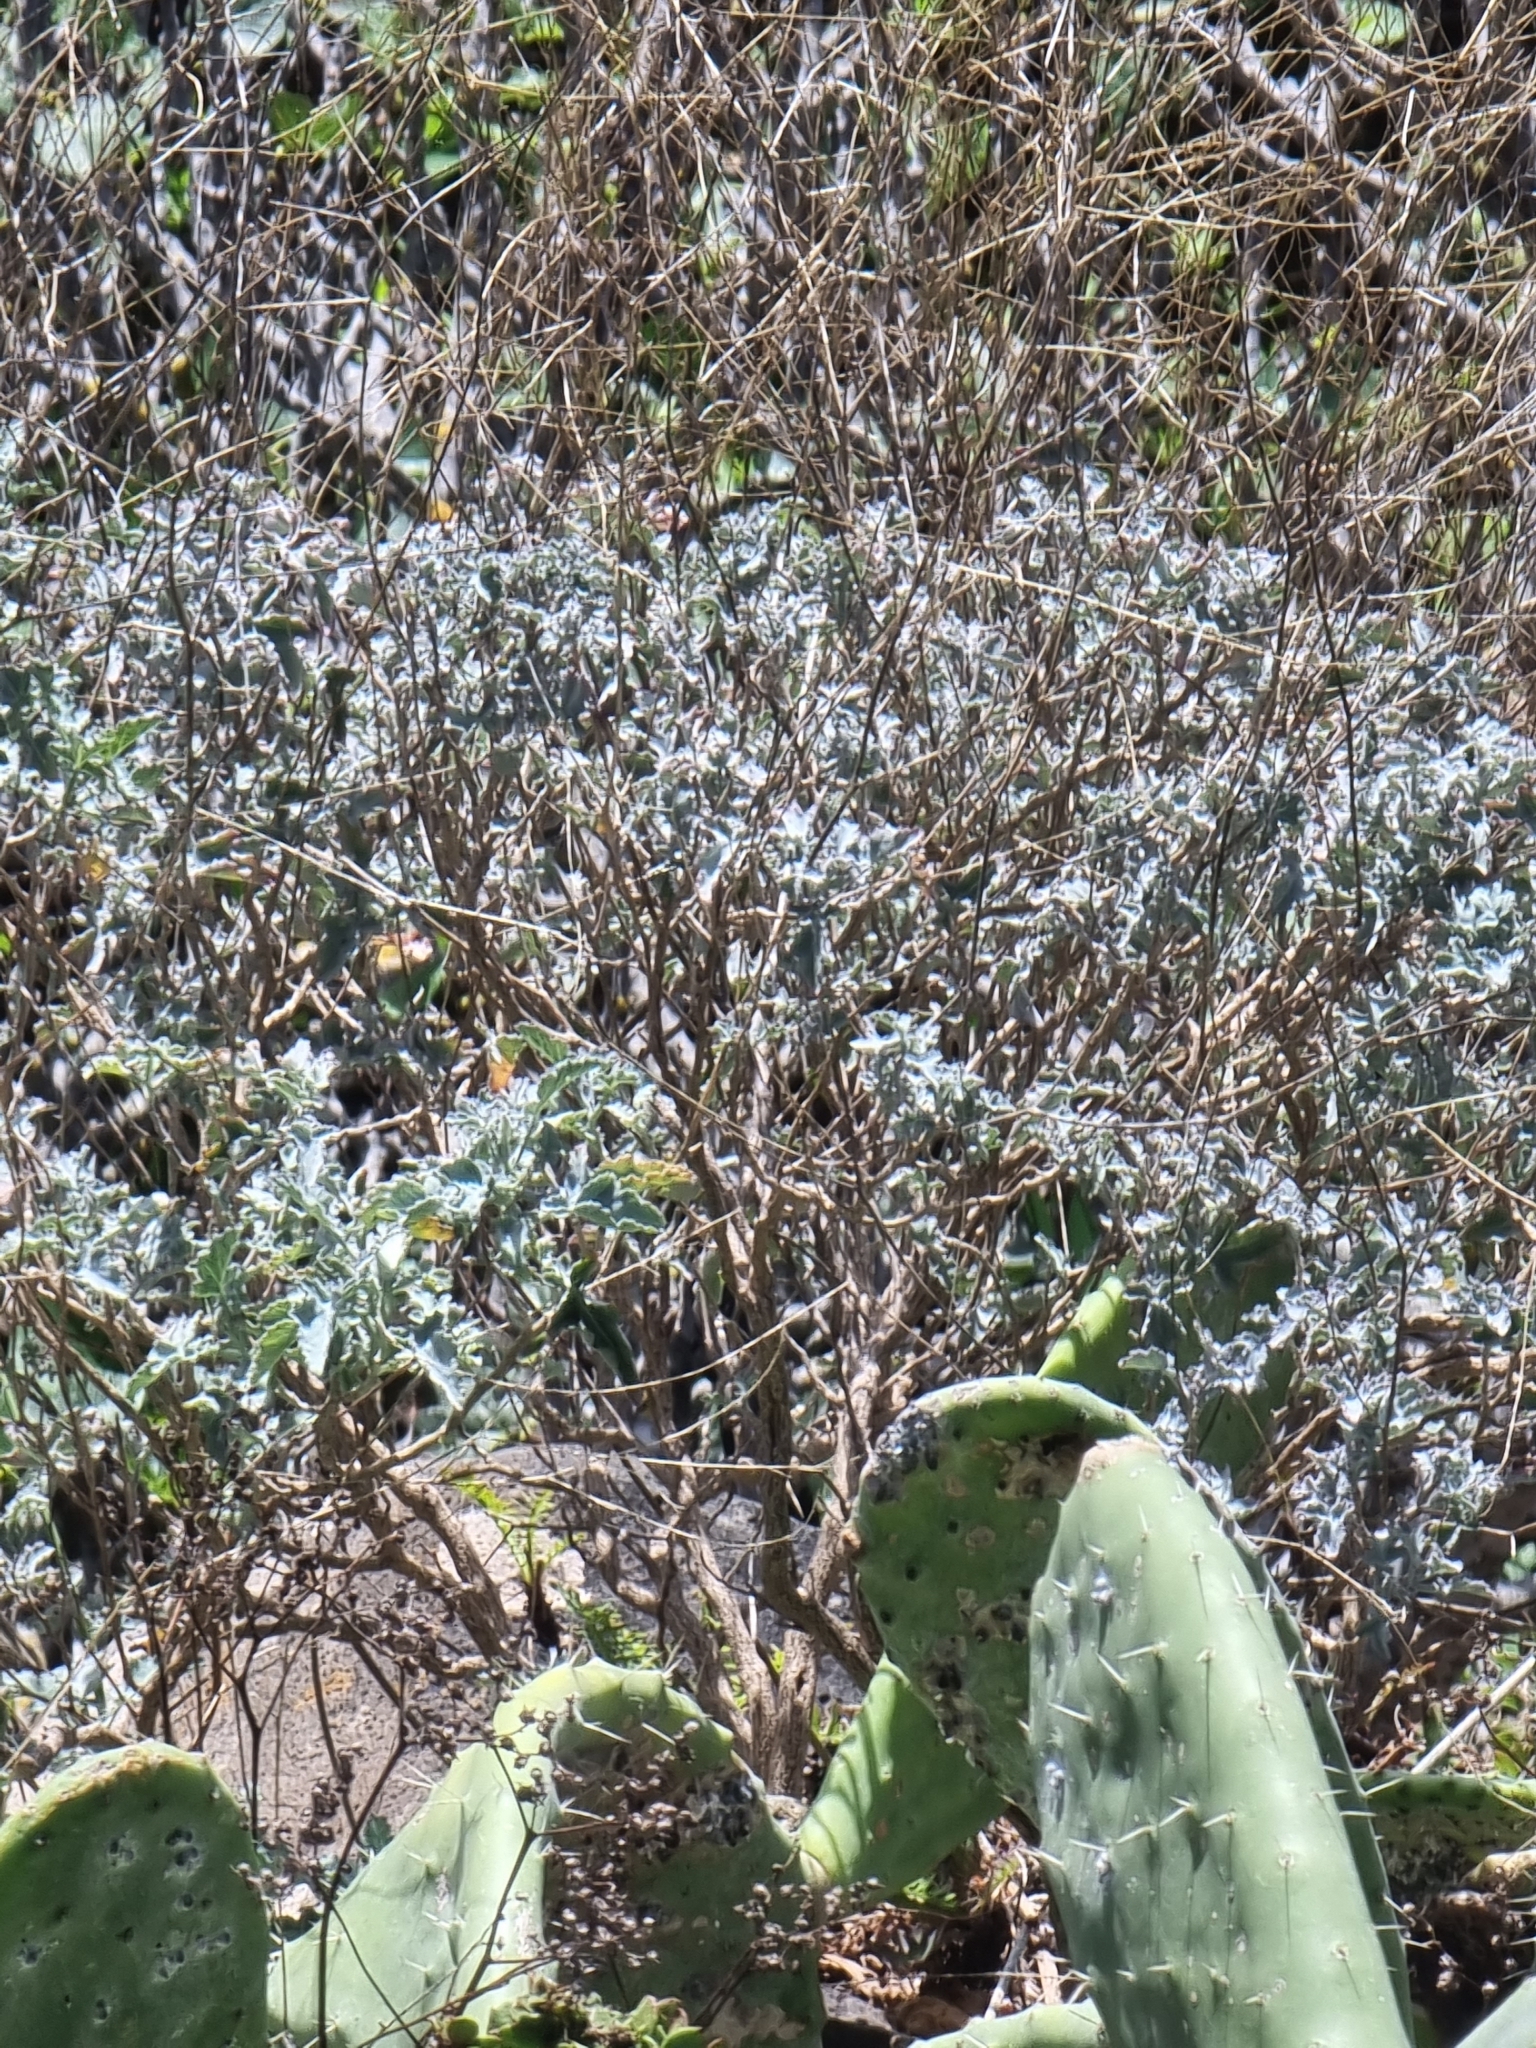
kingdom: Plantae
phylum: Tracheophyta
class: Magnoliopsida
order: Brassicales
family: Brassicaceae
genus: Crambe
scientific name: Crambe fruticosa
